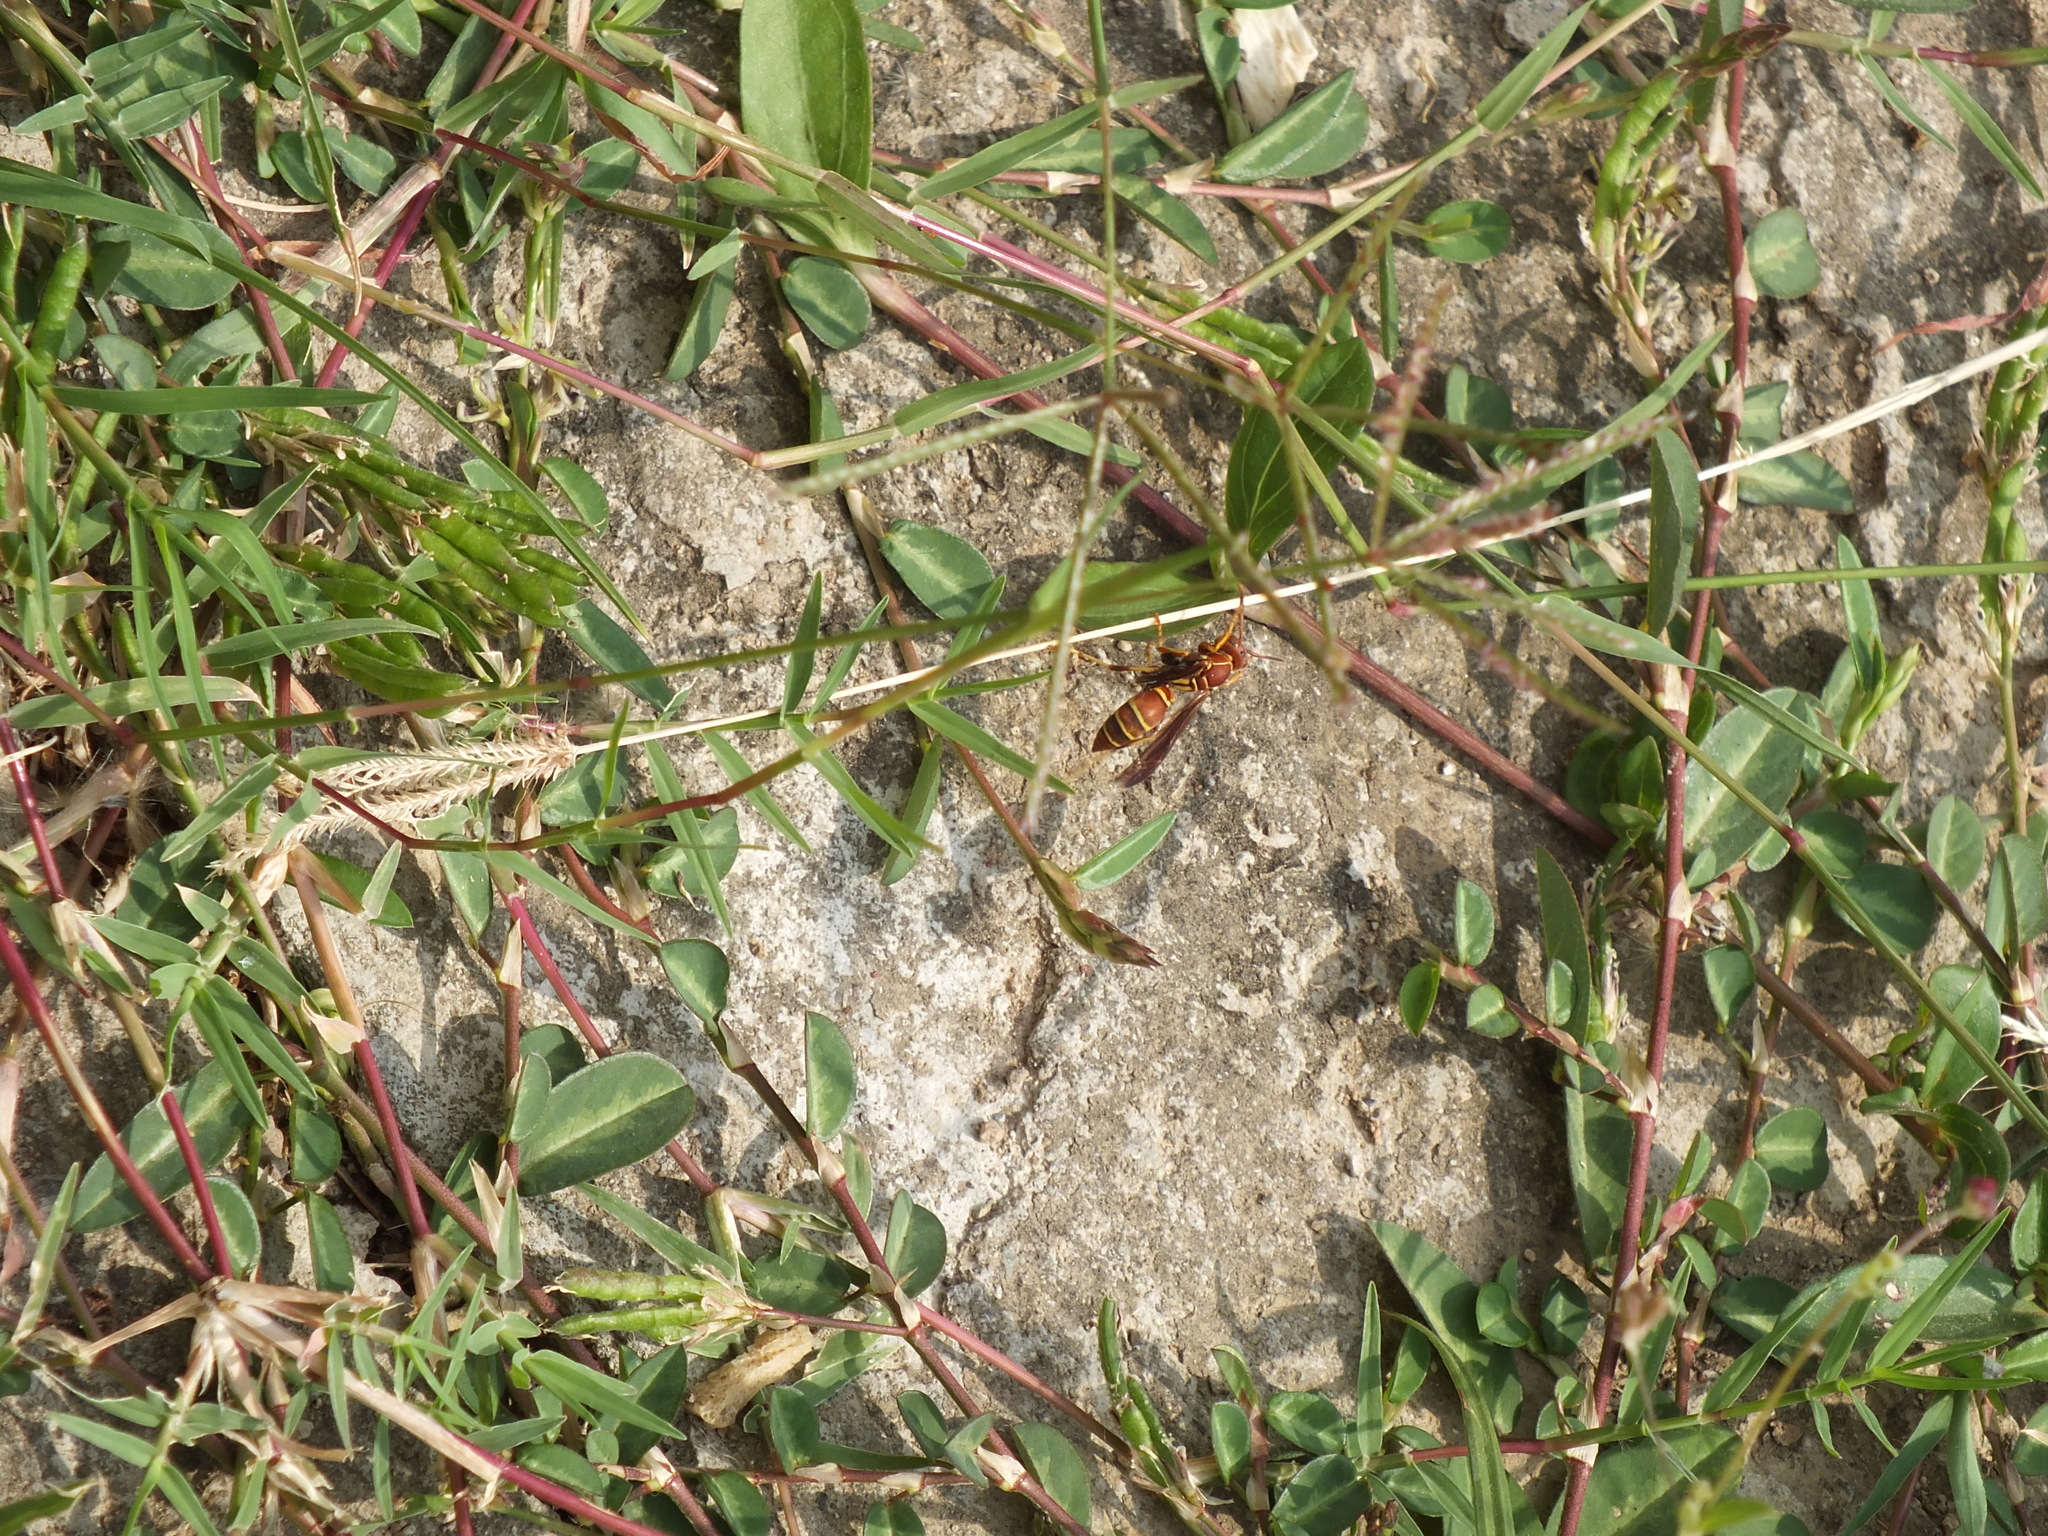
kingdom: Animalia
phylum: Arthropoda
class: Insecta
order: Hymenoptera
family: Eumenidae
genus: Polistes
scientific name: Polistes dorsalis
